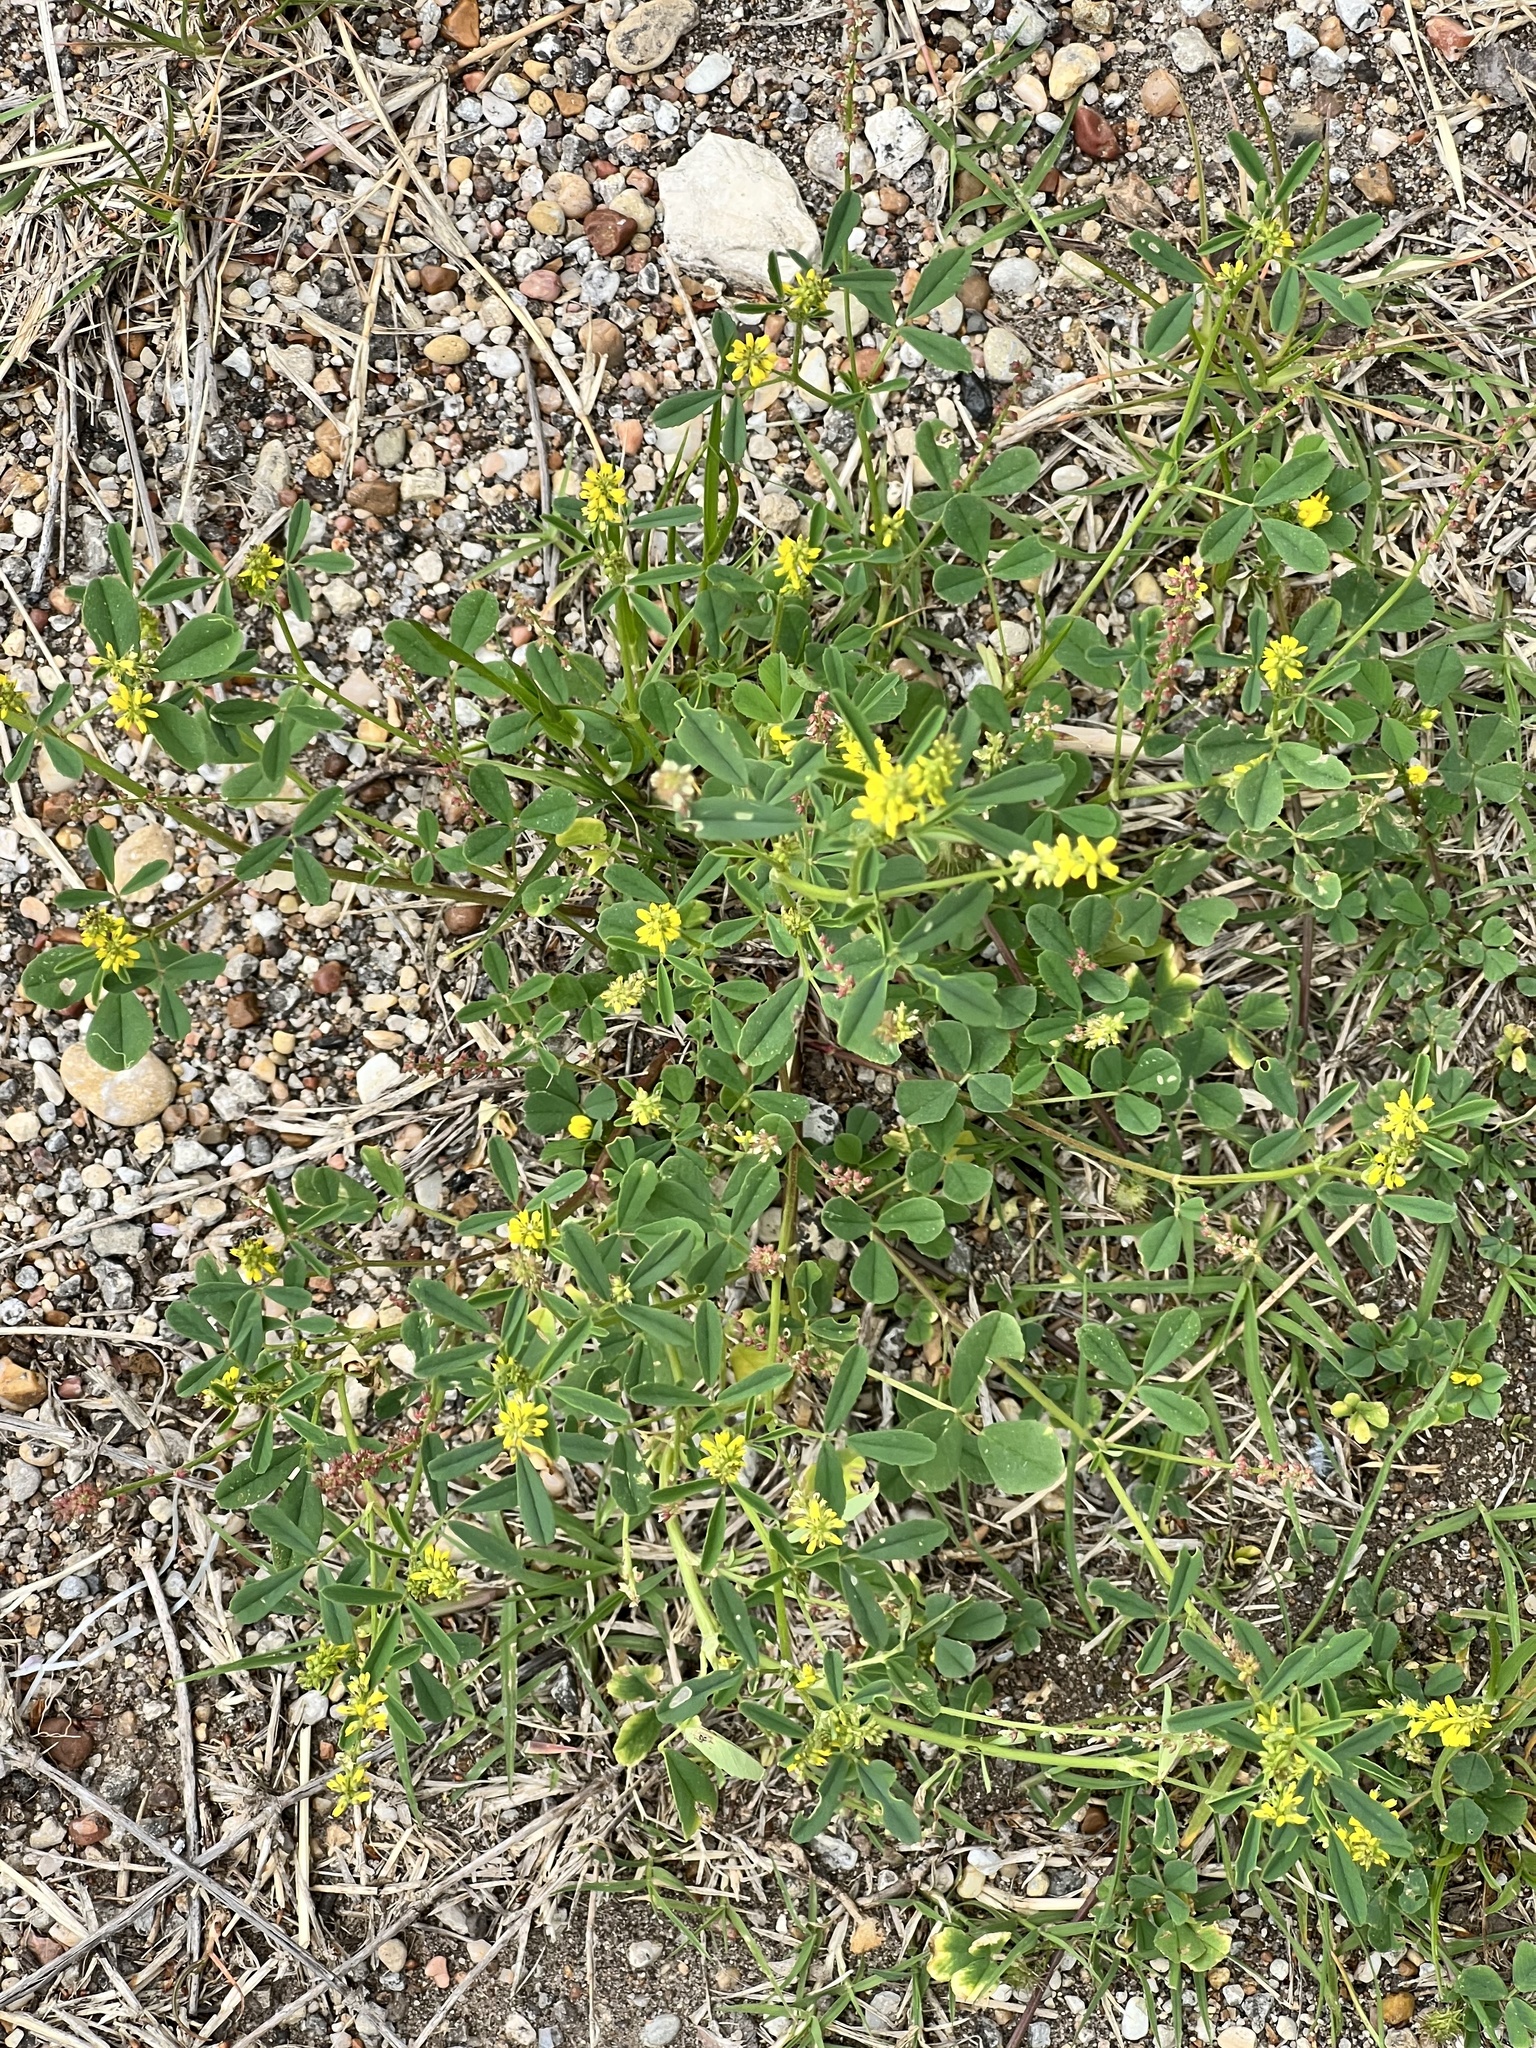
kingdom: Plantae
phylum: Tracheophyta
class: Magnoliopsida
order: Fabales
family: Fabaceae
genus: Melilotus
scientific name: Melilotus indicus
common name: Small melilot
